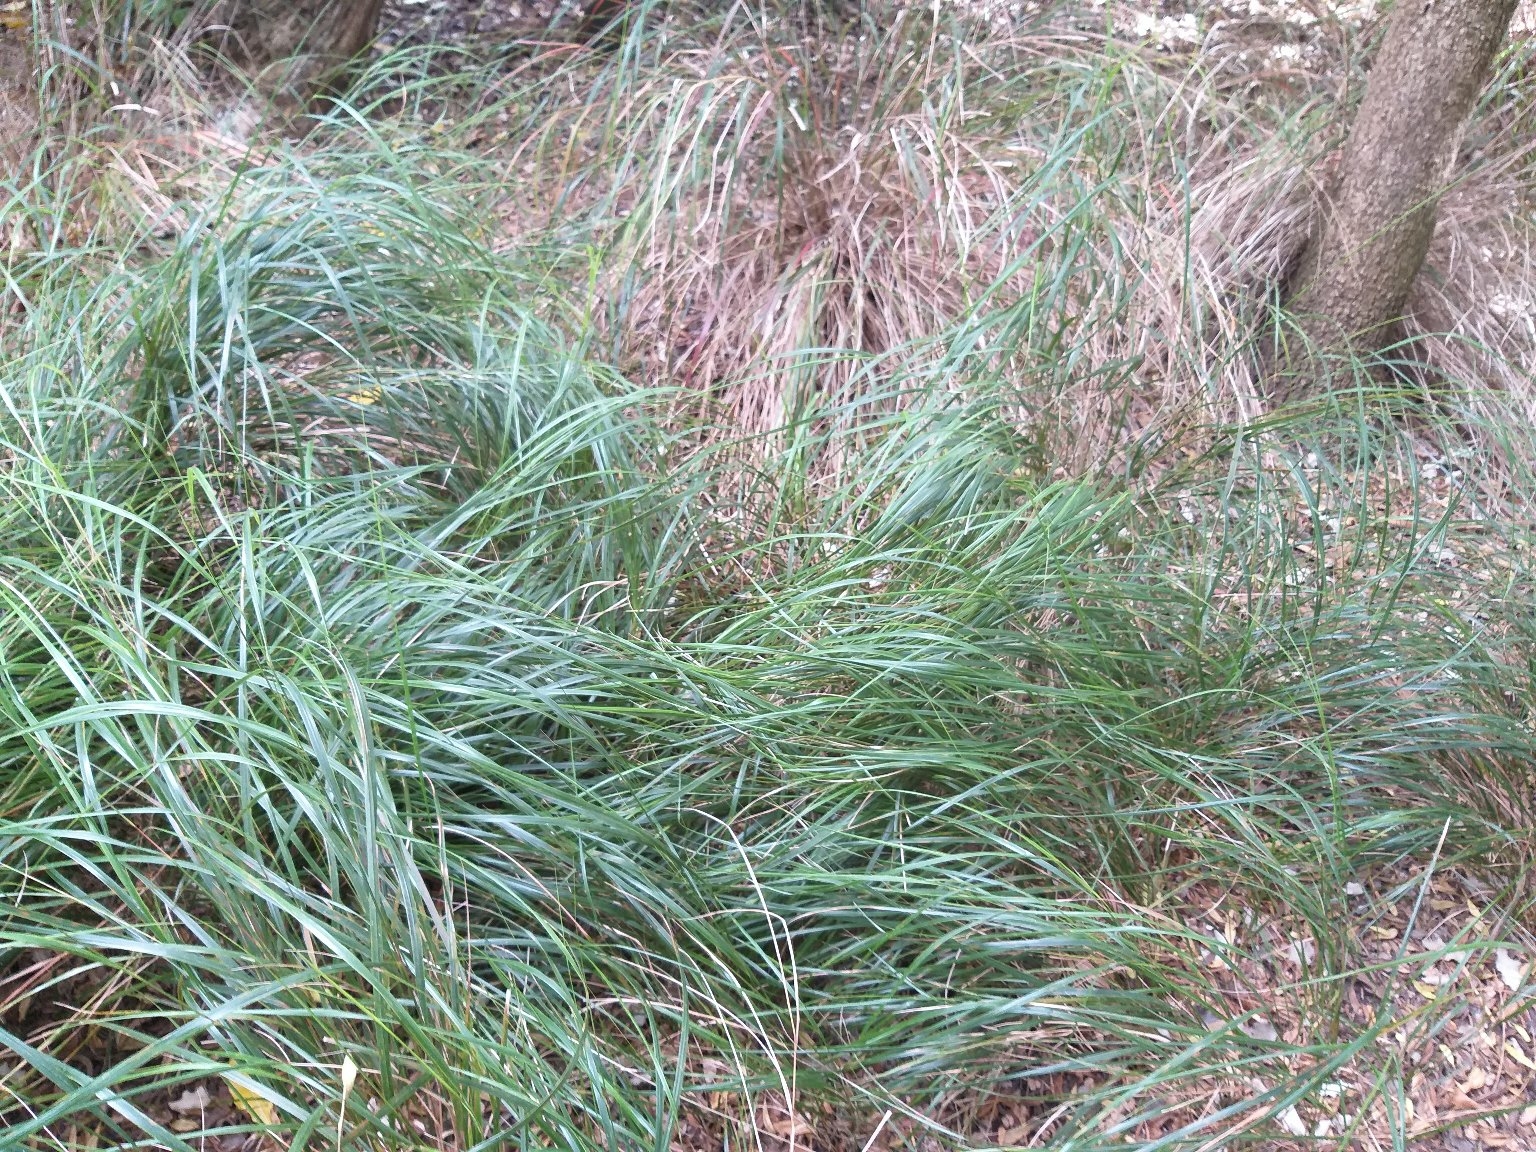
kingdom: Plantae
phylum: Tracheophyta
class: Liliopsida
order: Poales
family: Poaceae
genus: Anemanthele
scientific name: Anemanthele lessoniana
